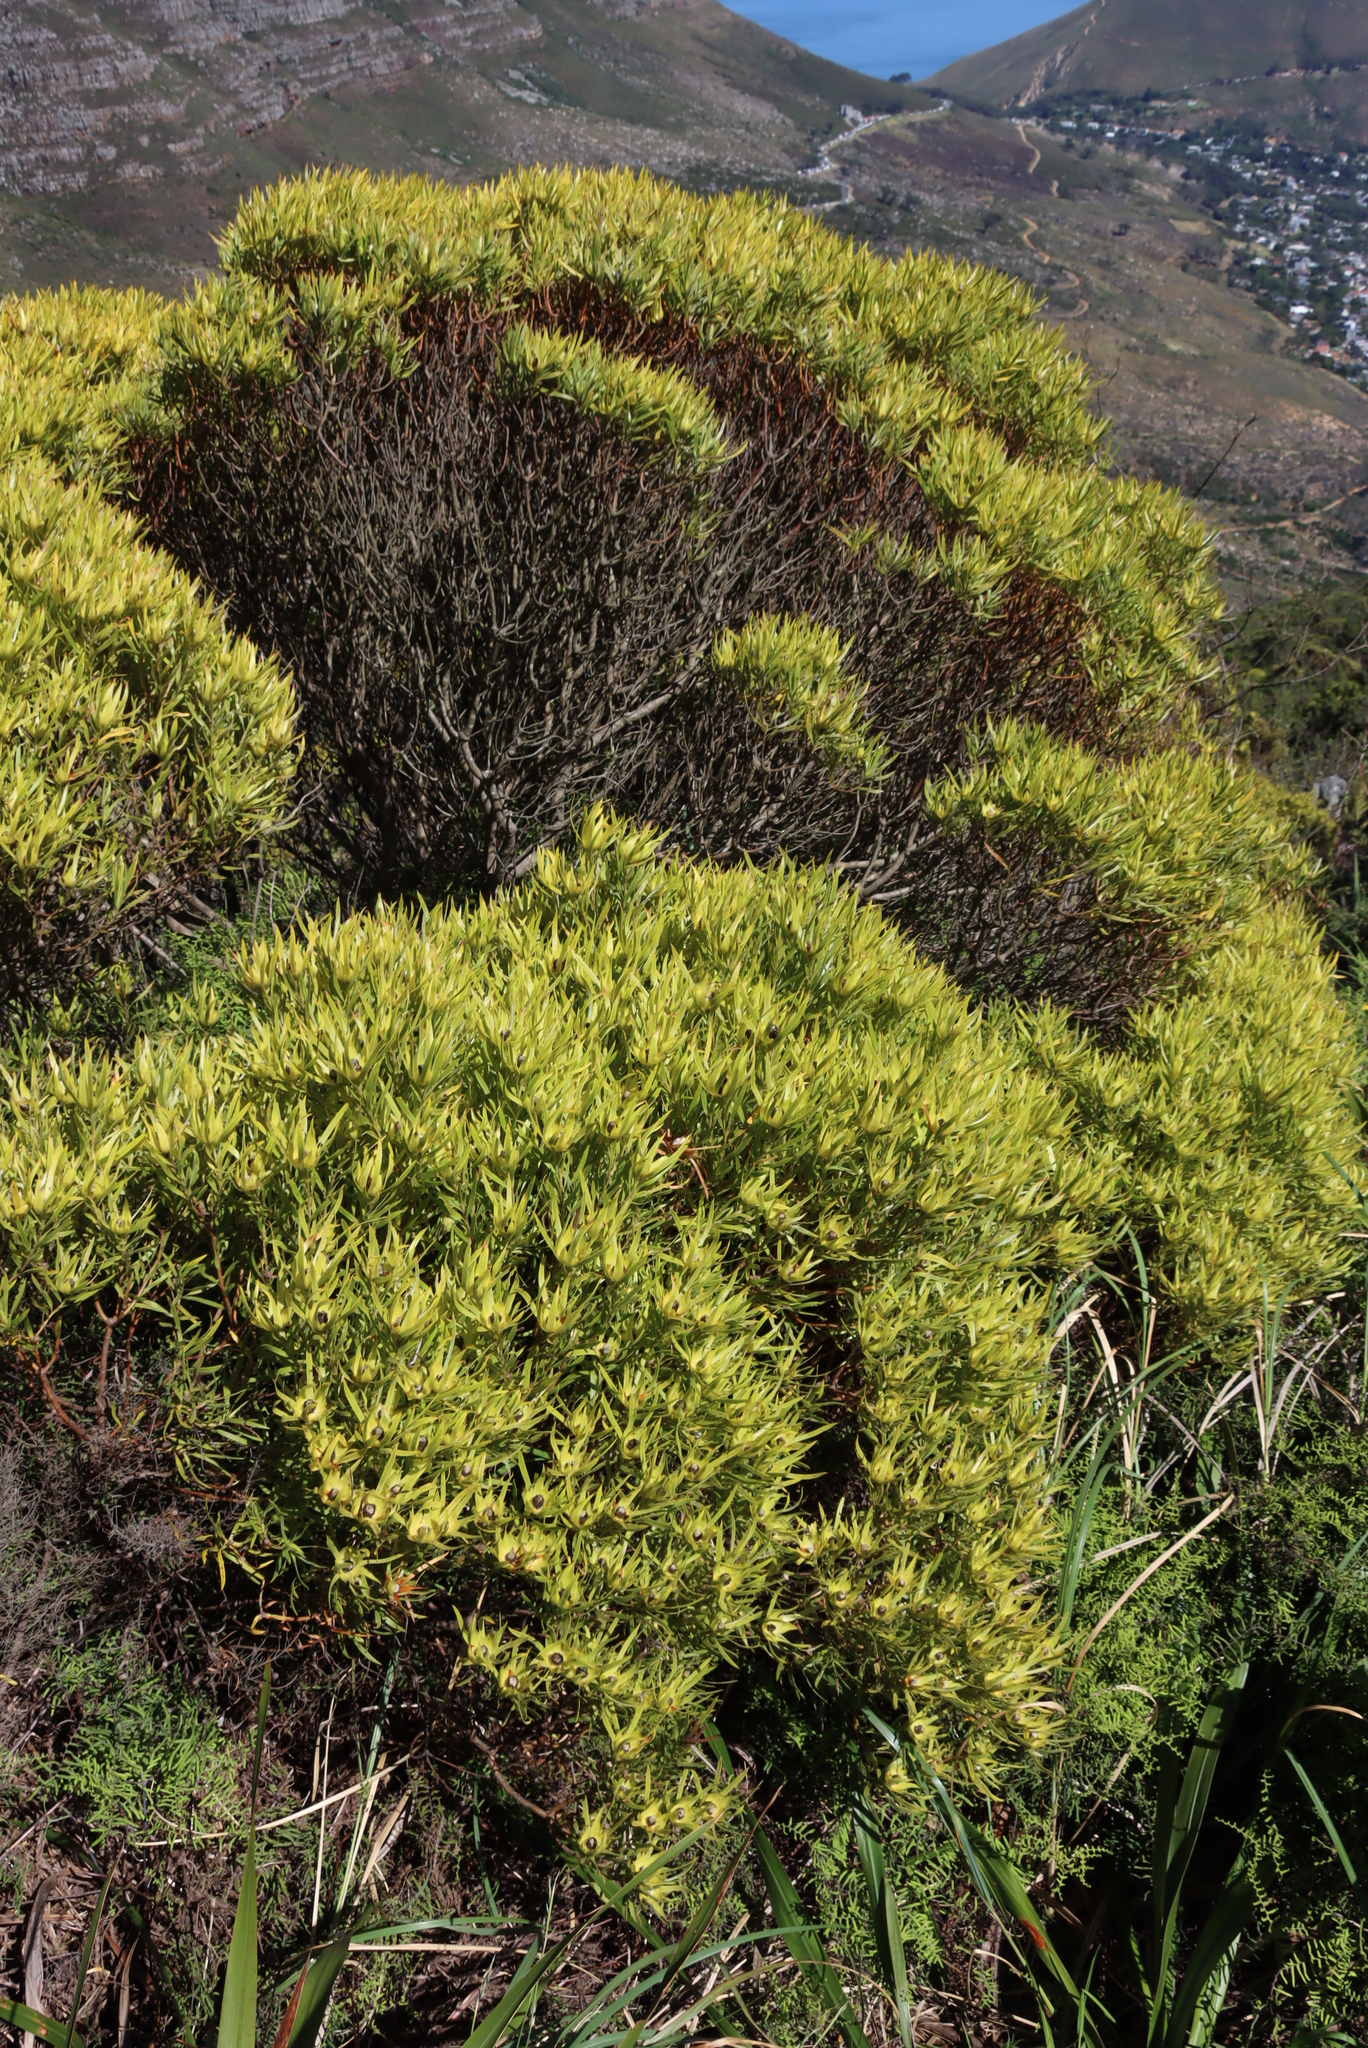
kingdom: Plantae
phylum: Tracheophyta
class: Magnoliopsida
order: Proteales
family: Proteaceae
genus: Leucadendron
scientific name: Leucadendron xanthoconus
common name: Sickle-leaf conebush
